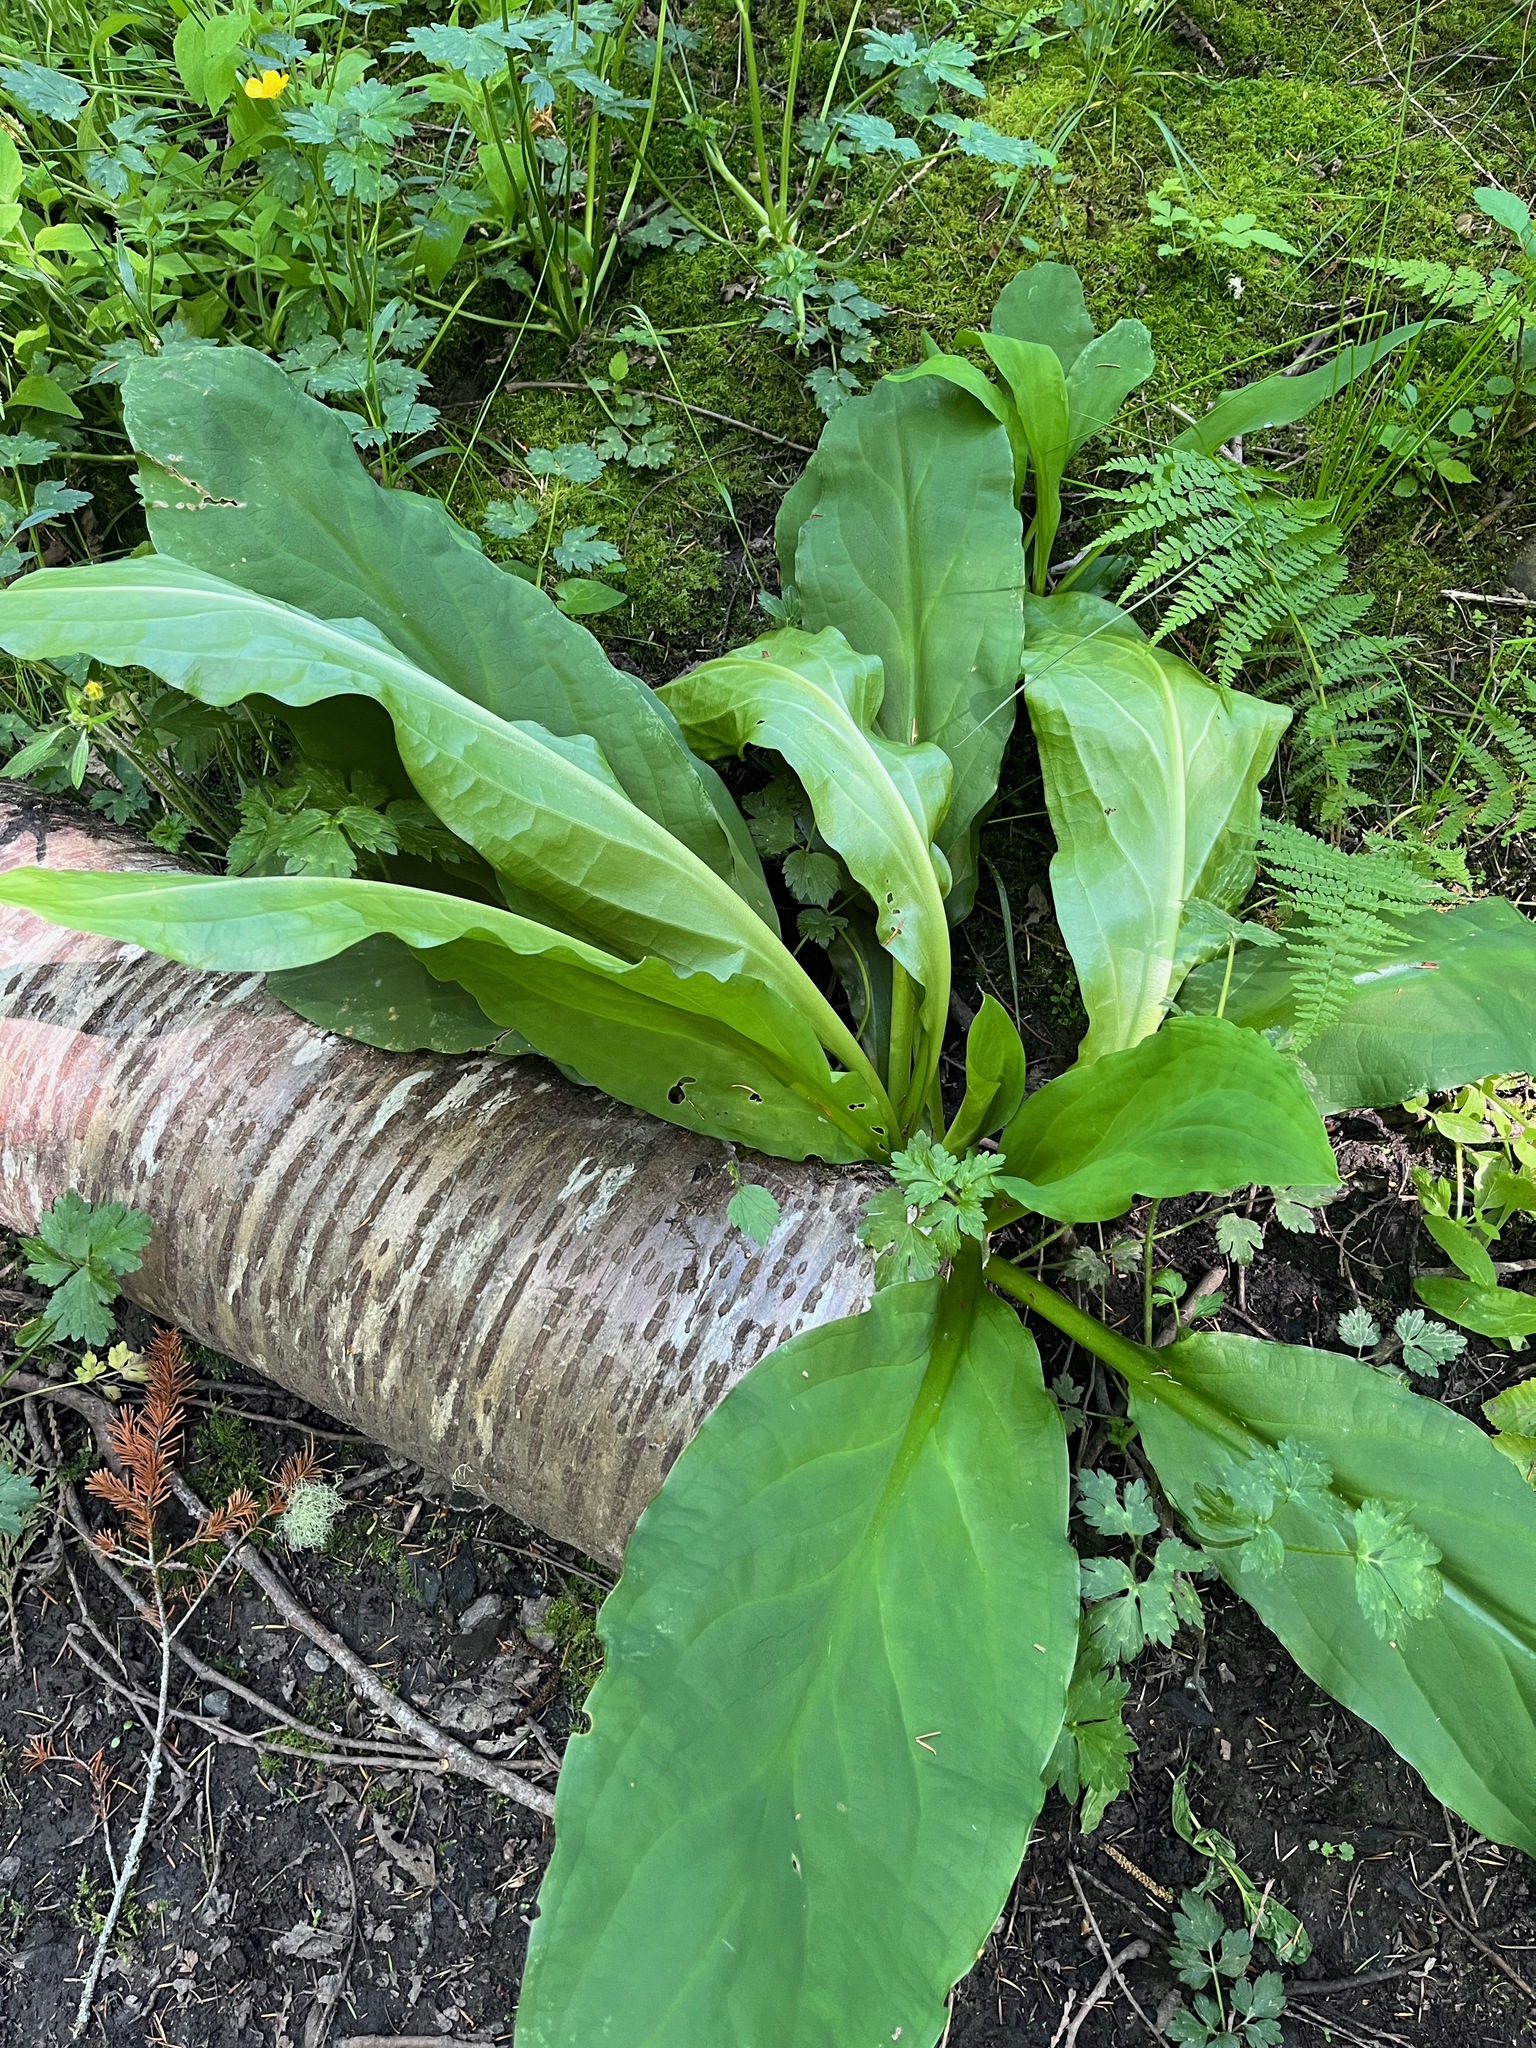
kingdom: Plantae
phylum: Tracheophyta
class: Liliopsida
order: Alismatales
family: Araceae
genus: Lysichiton
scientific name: Lysichiton americanus
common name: American skunk cabbage
